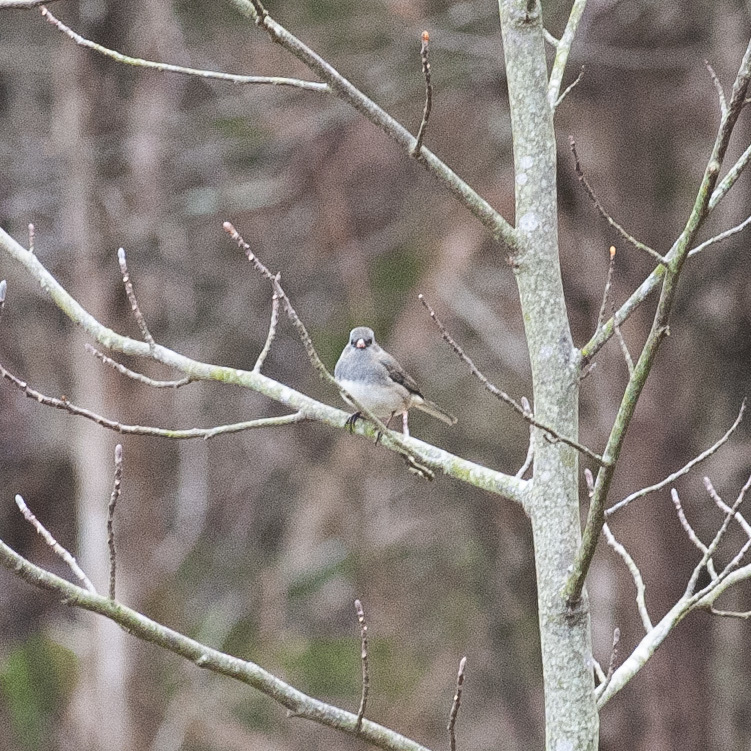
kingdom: Animalia
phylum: Chordata
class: Aves
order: Passeriformes
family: Passerellidae
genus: Junco
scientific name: Junco hyemalis
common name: Dark-eyed junco
